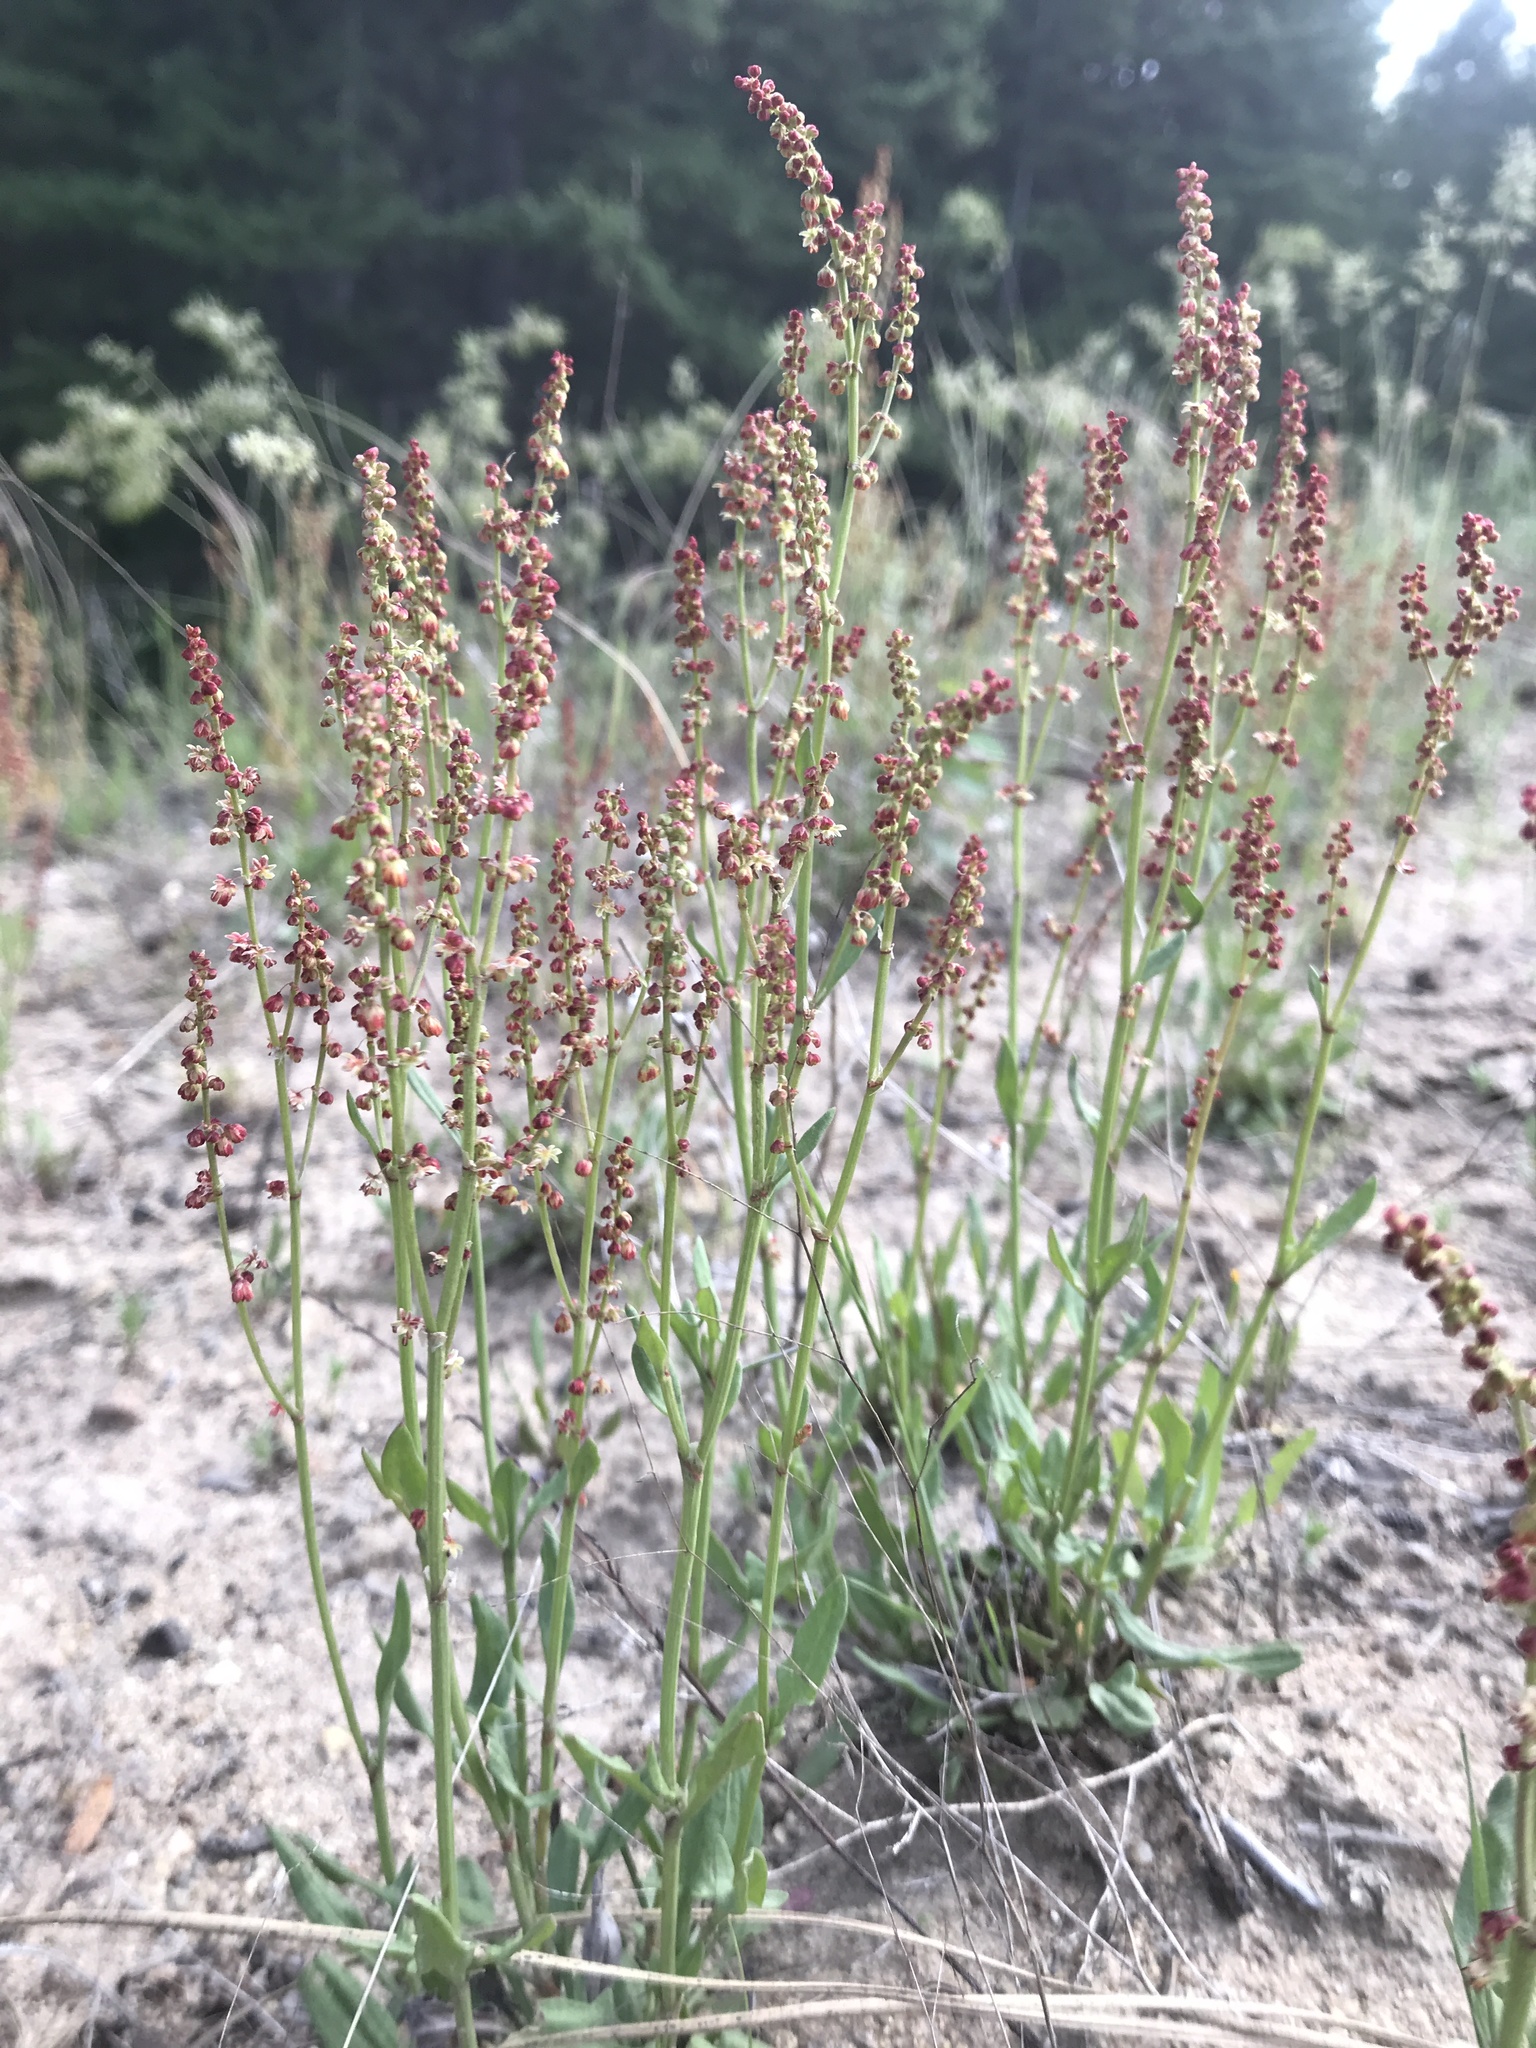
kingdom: Plantae
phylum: Tracheophyta
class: Magnoliopsida
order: Caryophyllales
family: Polygonaceae
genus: Rumex
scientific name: Rumex acetosella
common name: Common sheep sorrel
